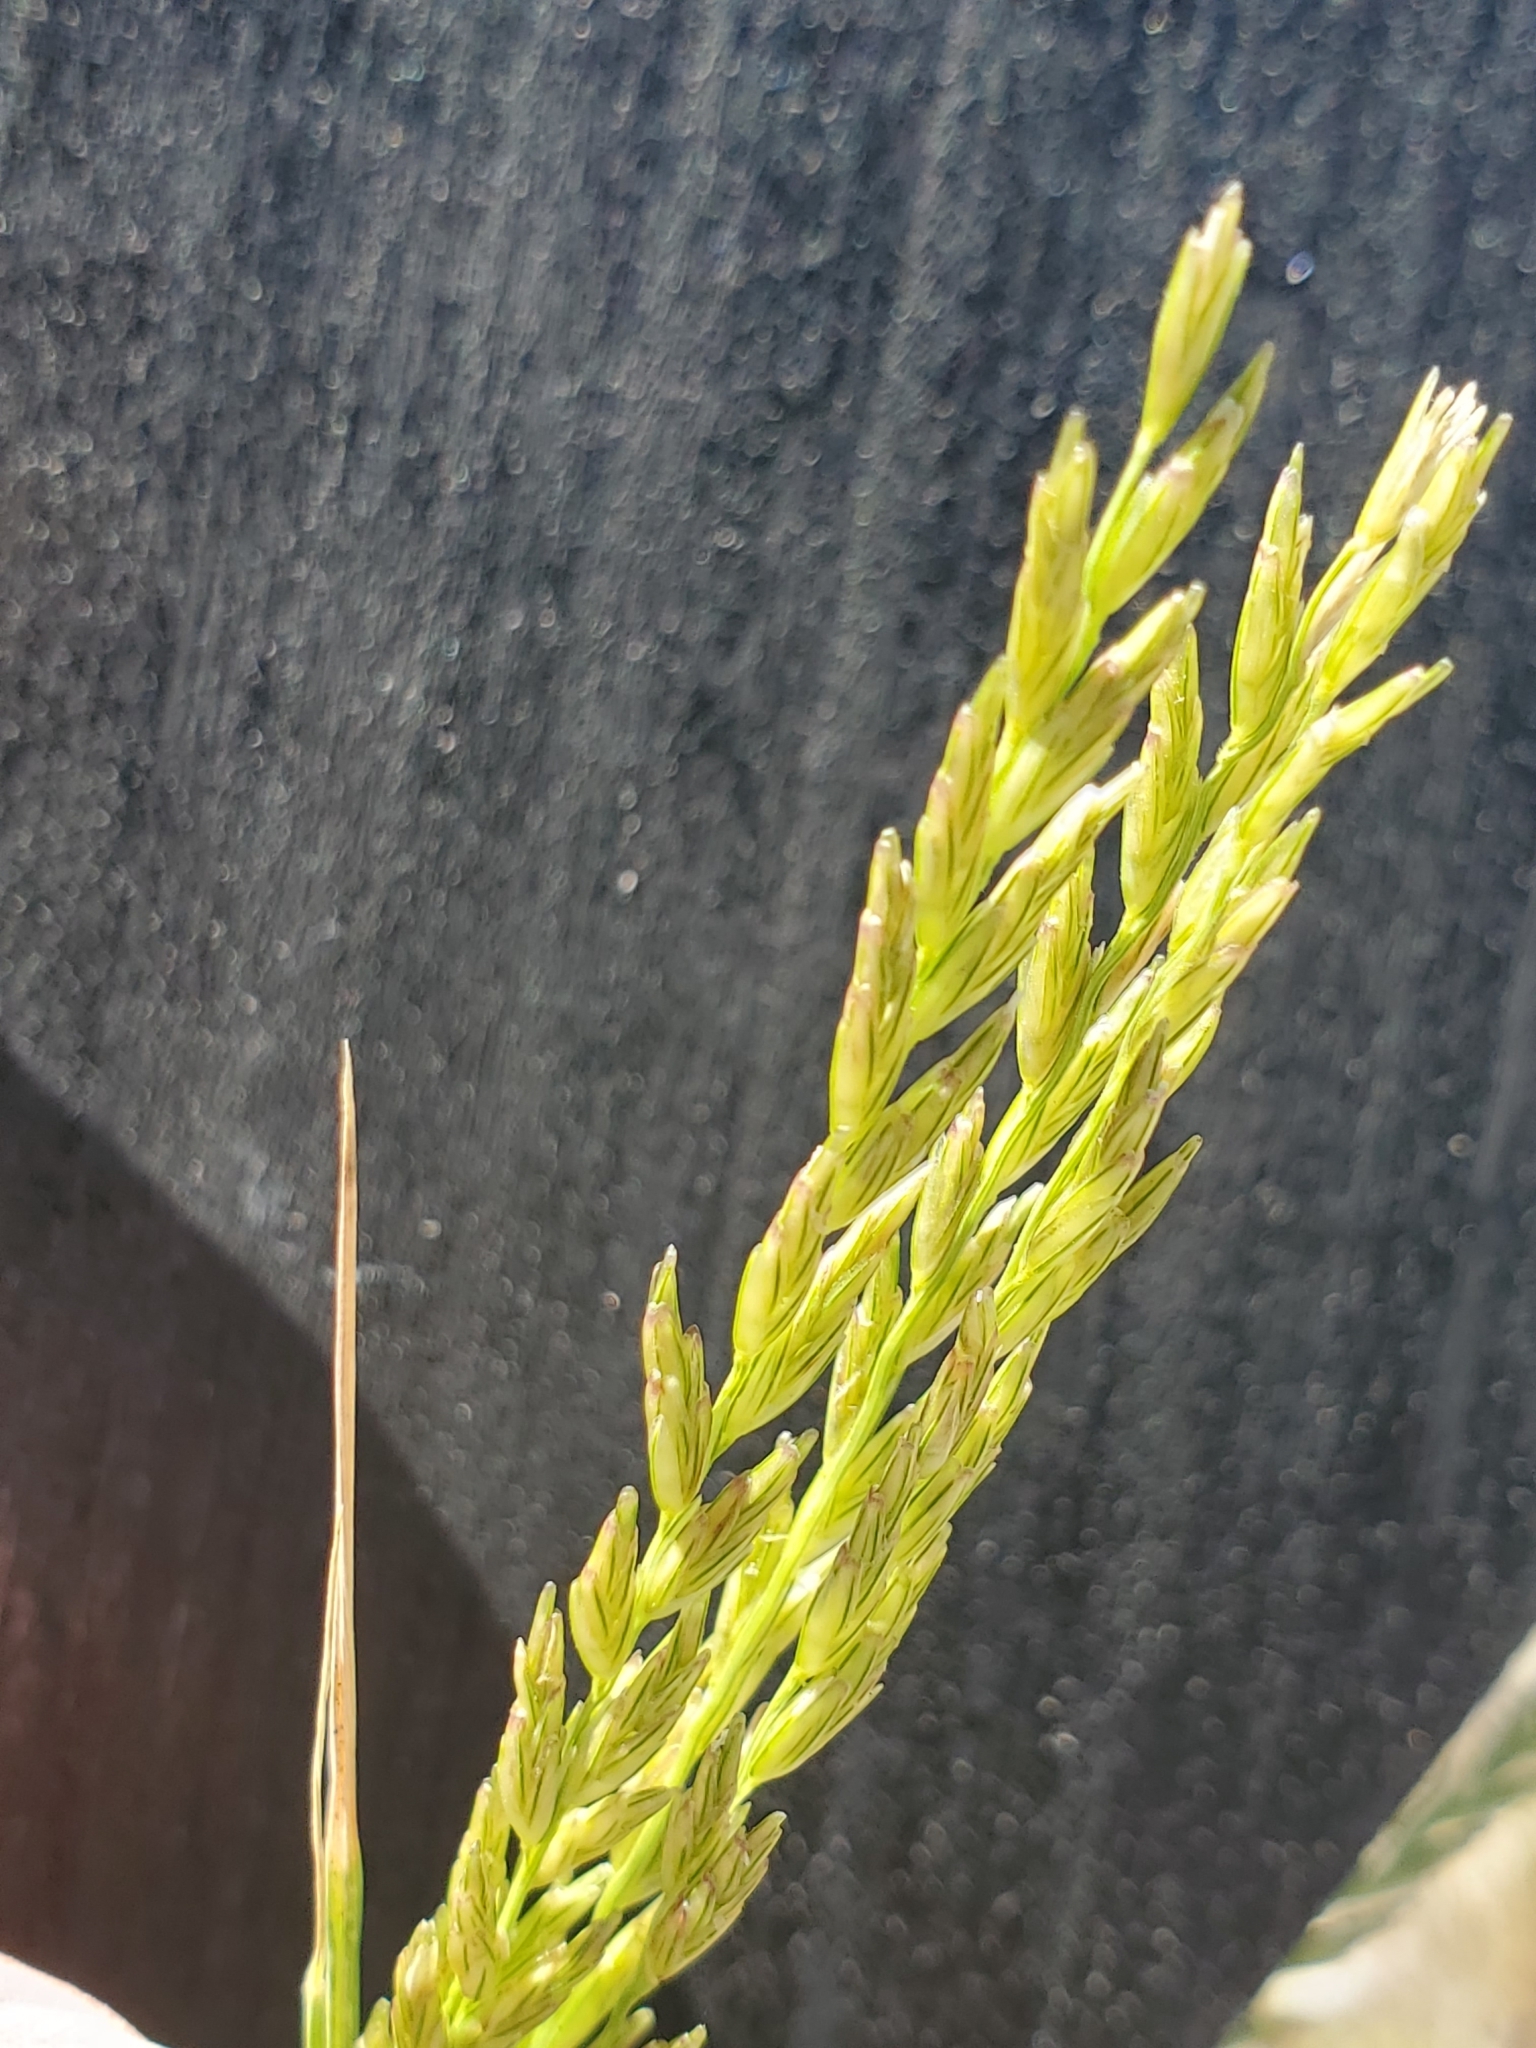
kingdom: Plantae
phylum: Tracheophyta
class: Liliopsida
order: Poales
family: Poaceae
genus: Disakisperma
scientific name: Disakisperma dubium
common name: Green sprangletop
